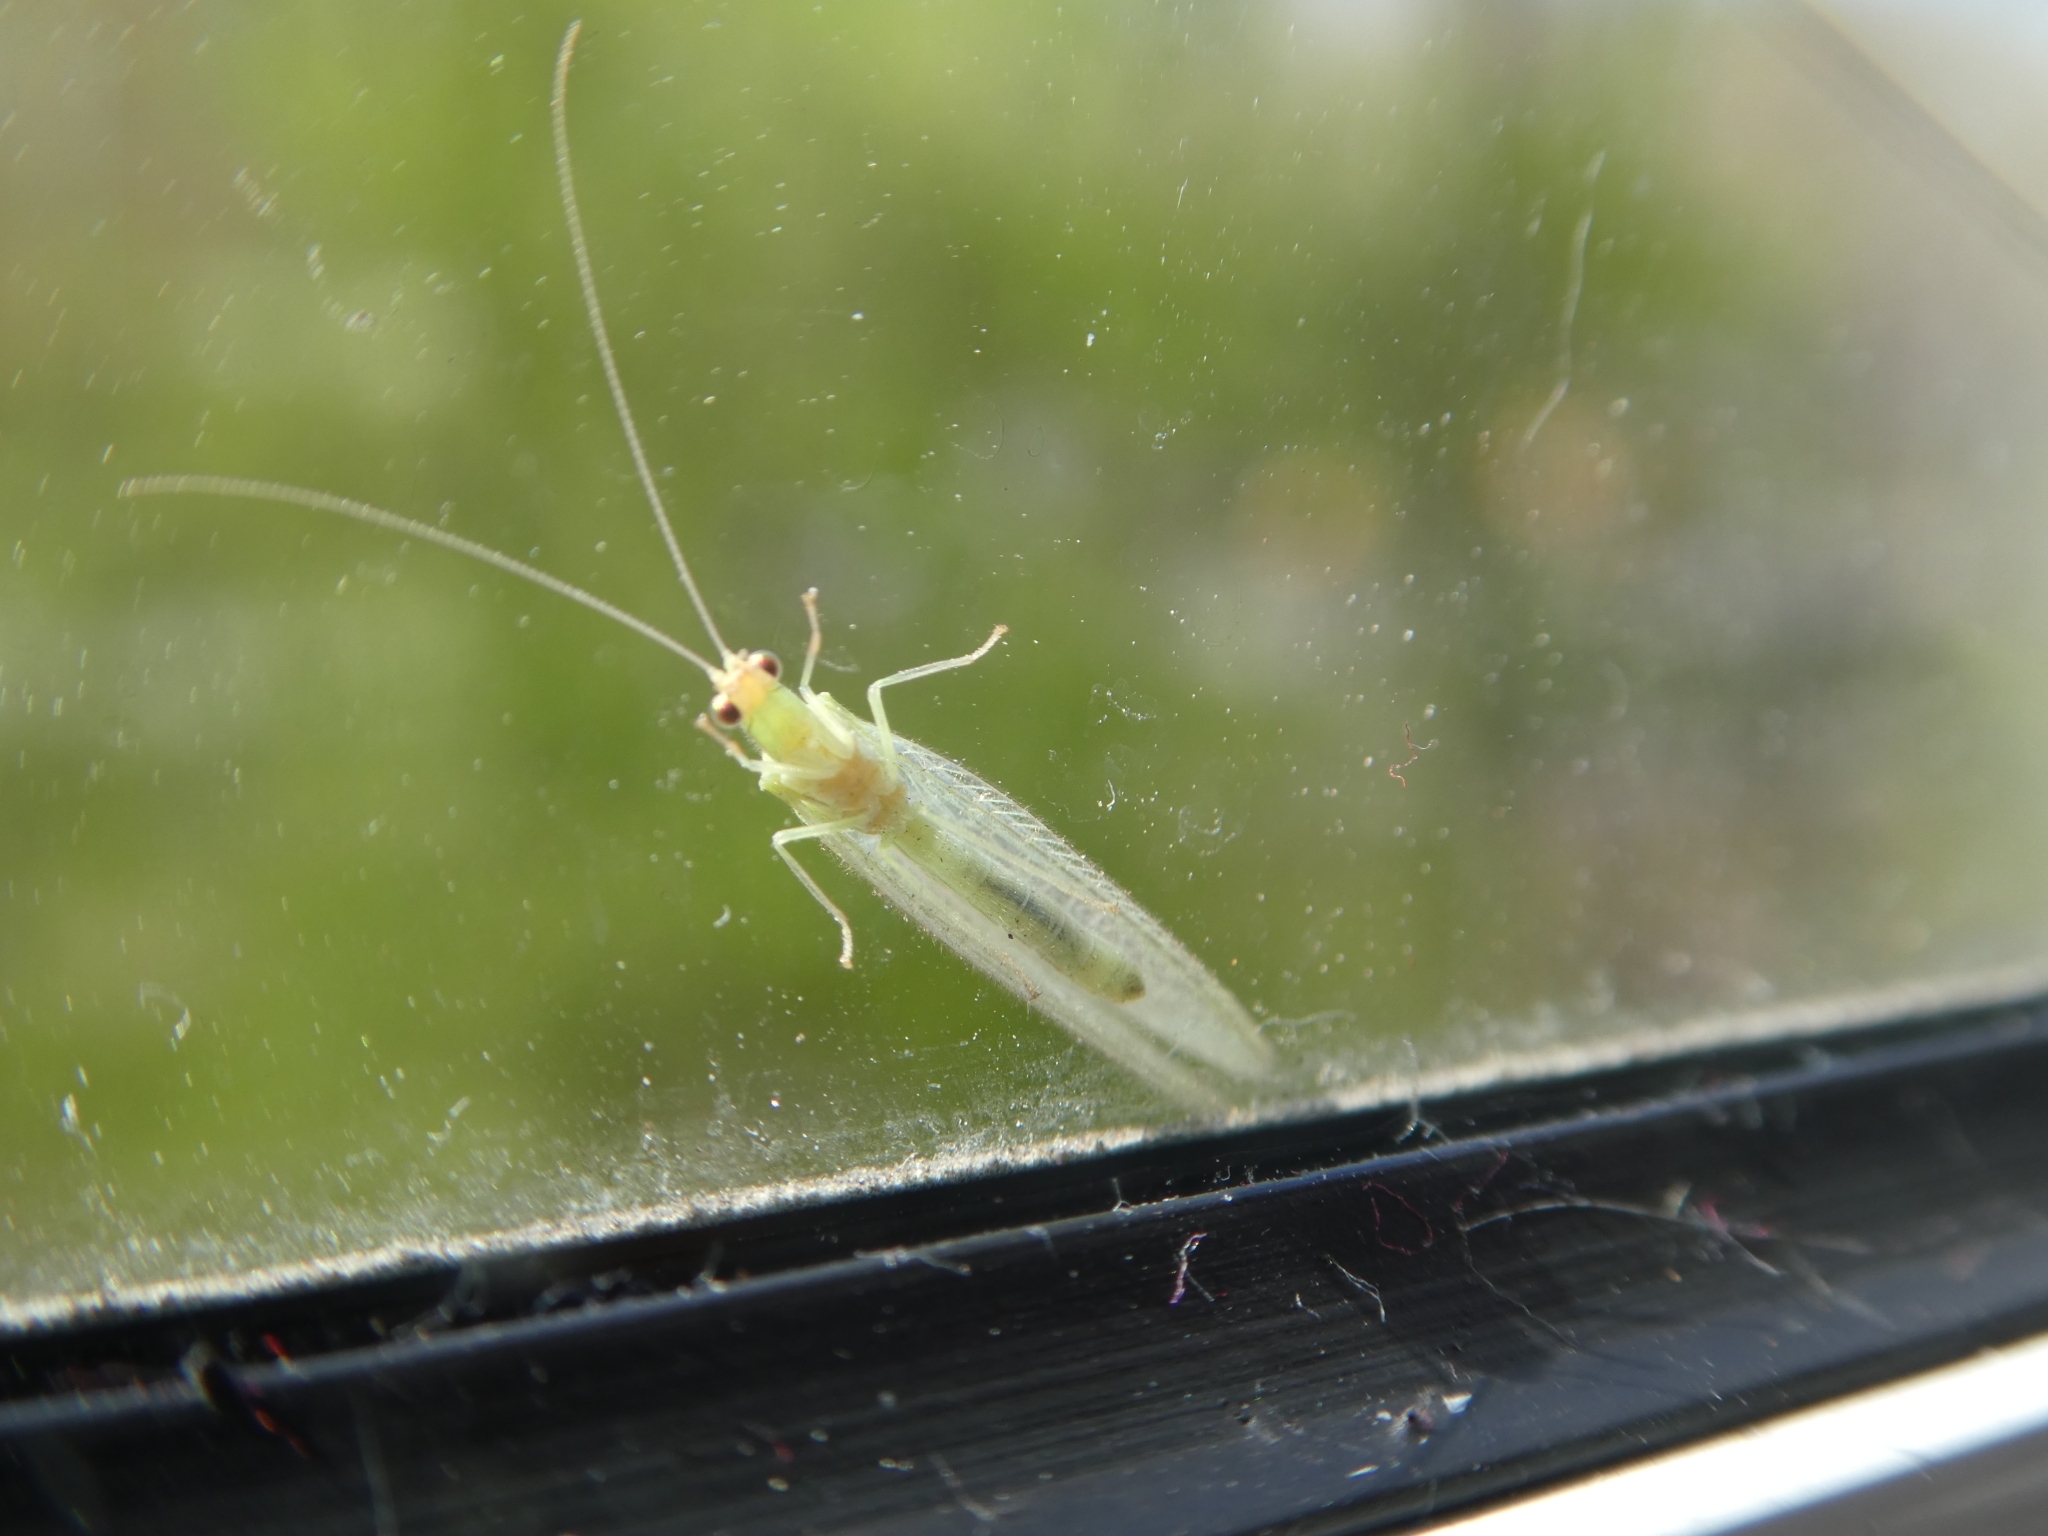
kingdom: Animalia
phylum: Arthropoda
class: Insecta
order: Neuroptera
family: Chrysopidae
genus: Chrysoperla
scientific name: Chrysoperla
